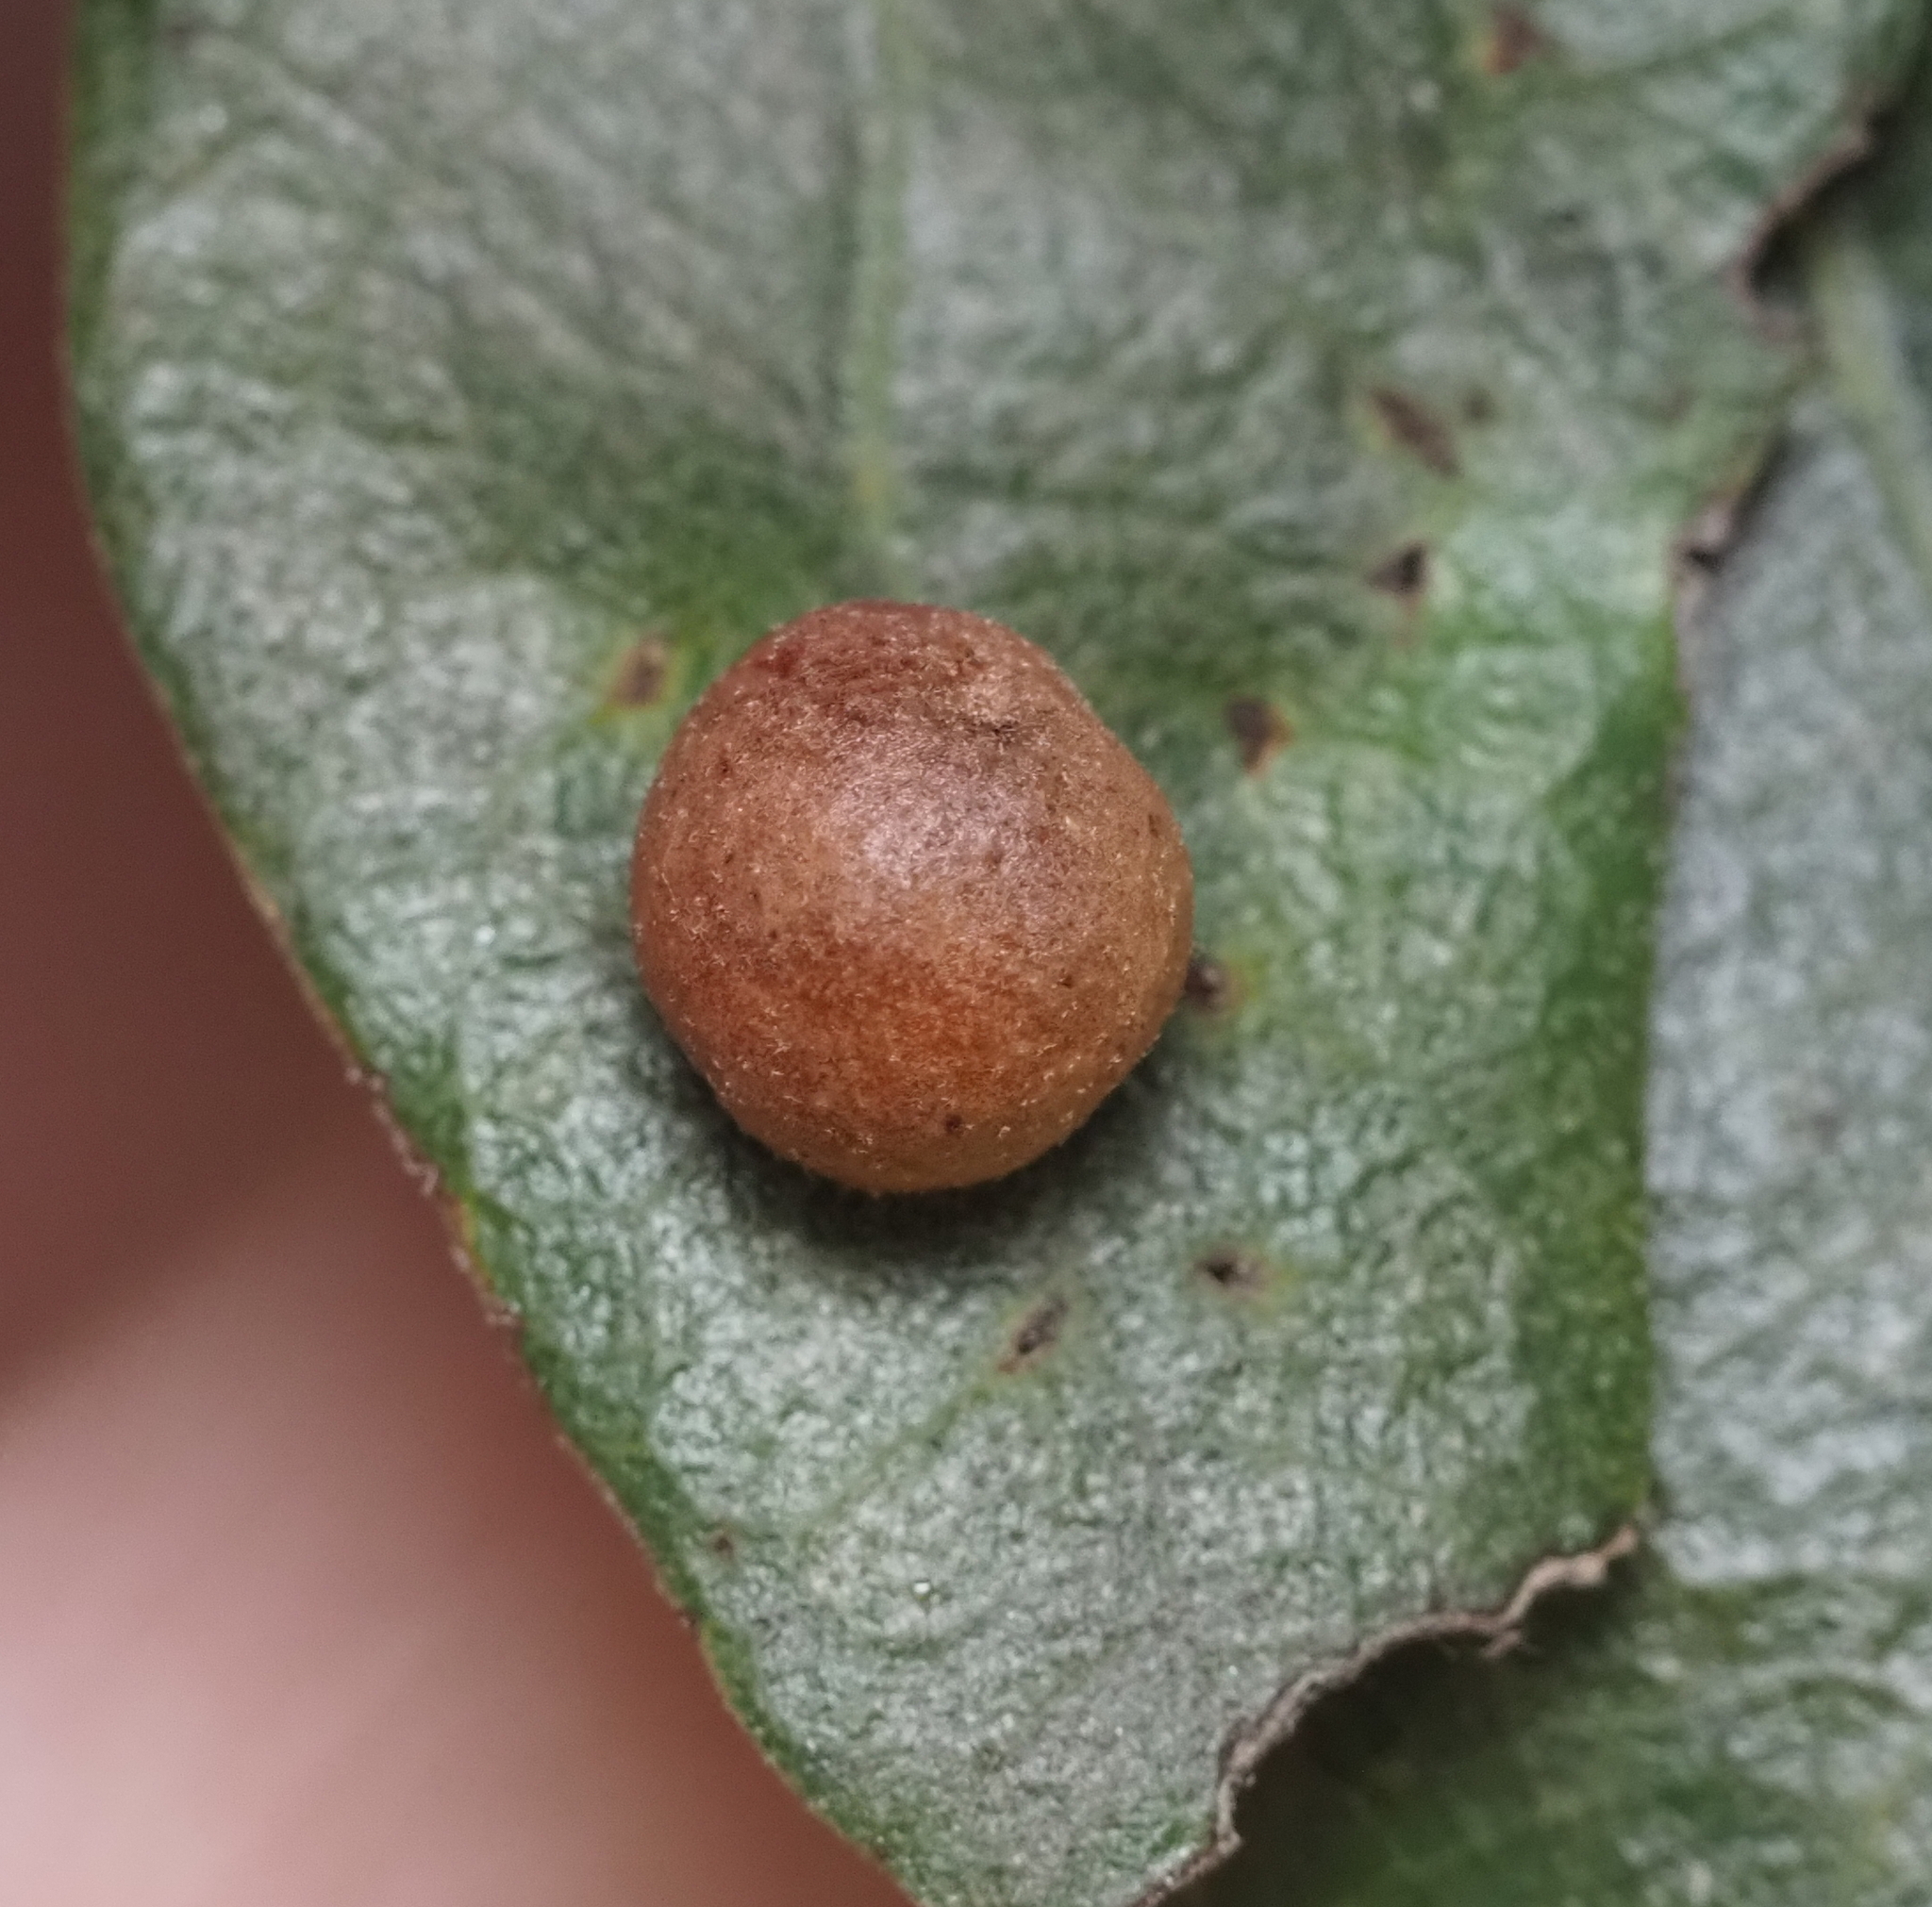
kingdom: Animalia
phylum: Arthropoda
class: Insecta
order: Hymenoptera
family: Cynipidae
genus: Belonocnema
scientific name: Belonocnema kinseyi
